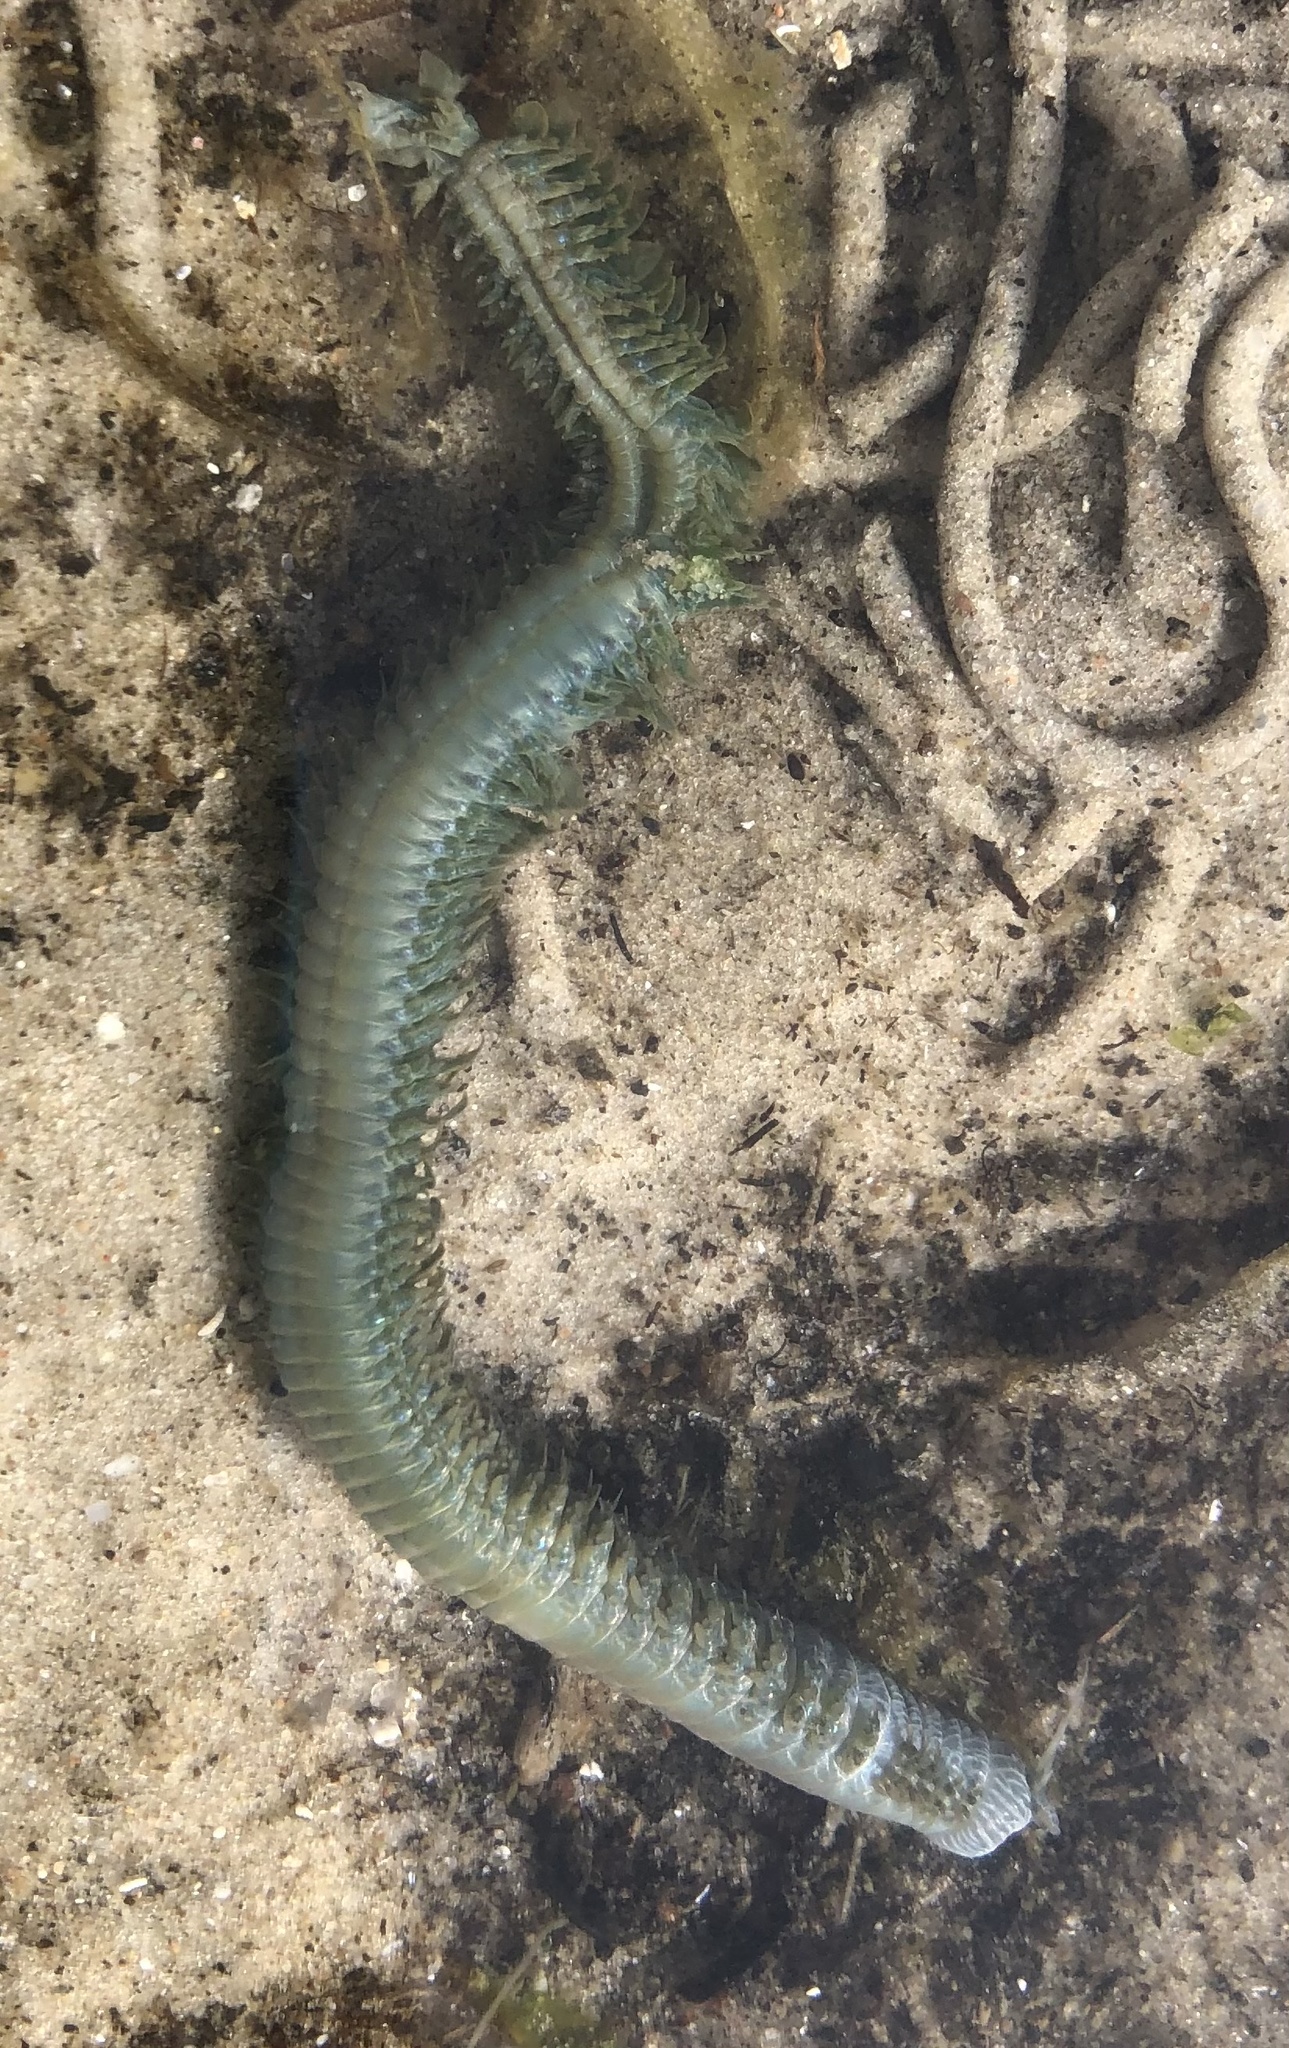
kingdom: Animalia
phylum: Annelida
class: Polychaeta
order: Phyllodocida
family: Nereididae
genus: Alitta
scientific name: Alitta virens
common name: King ragworm
